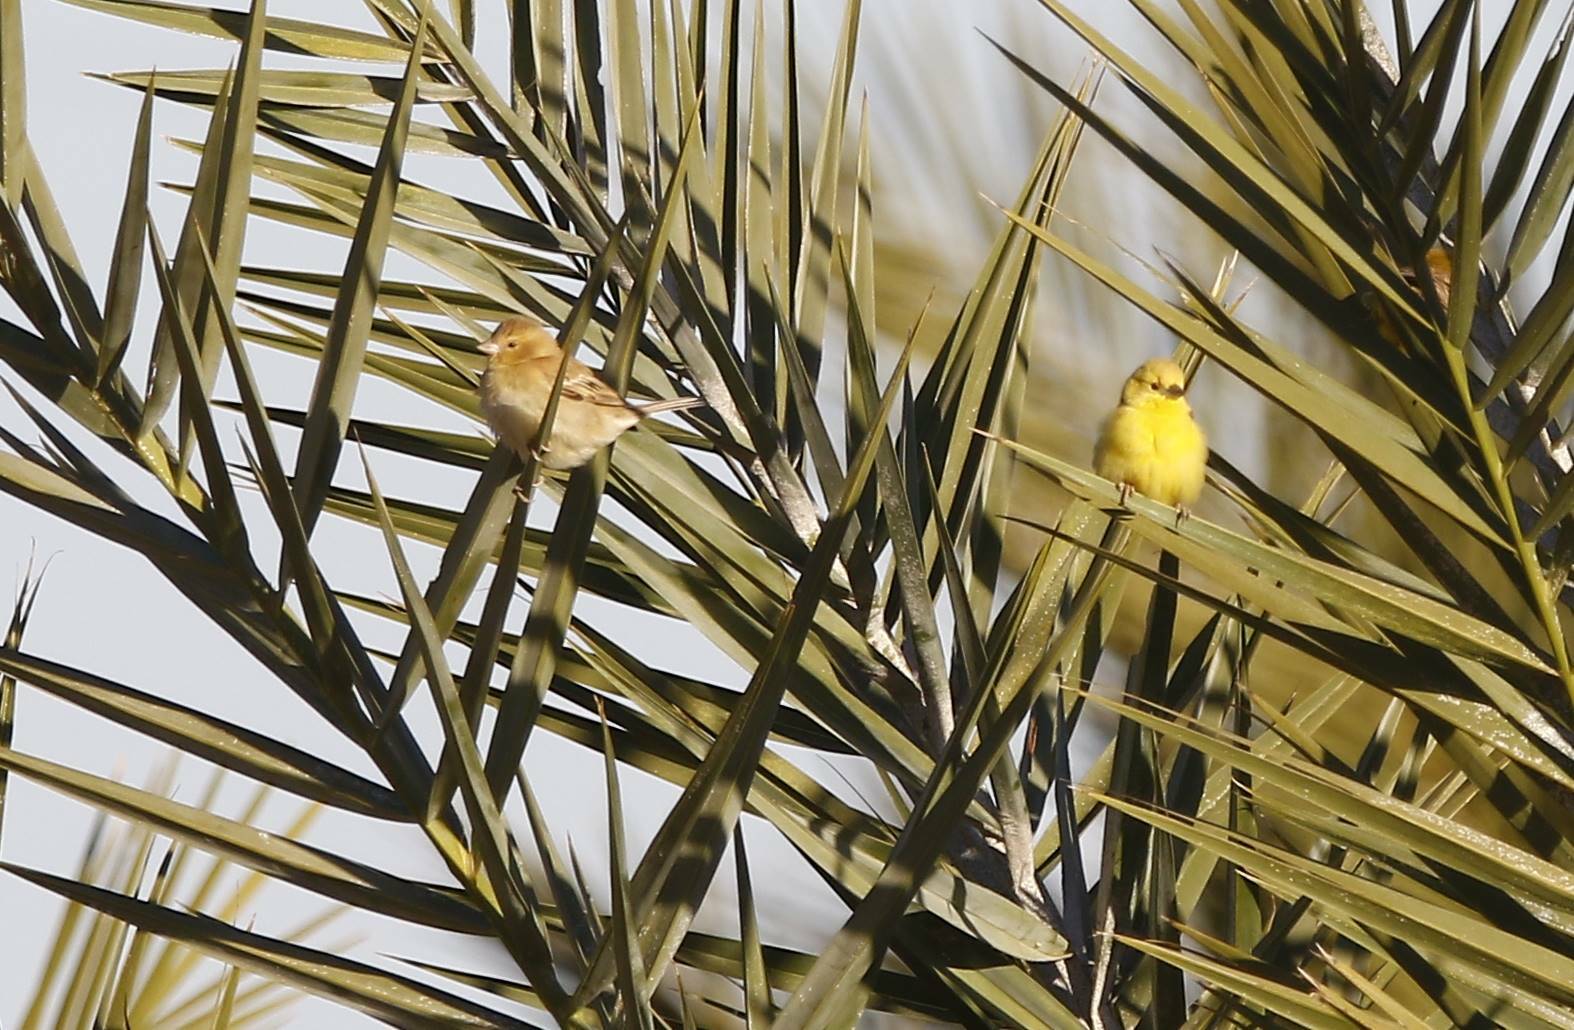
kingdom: Animalia
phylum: Chordata
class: Aves
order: Passeriformes
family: Passeridae
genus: Passer
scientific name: Passer luteus
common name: Sudan golden sparrow
